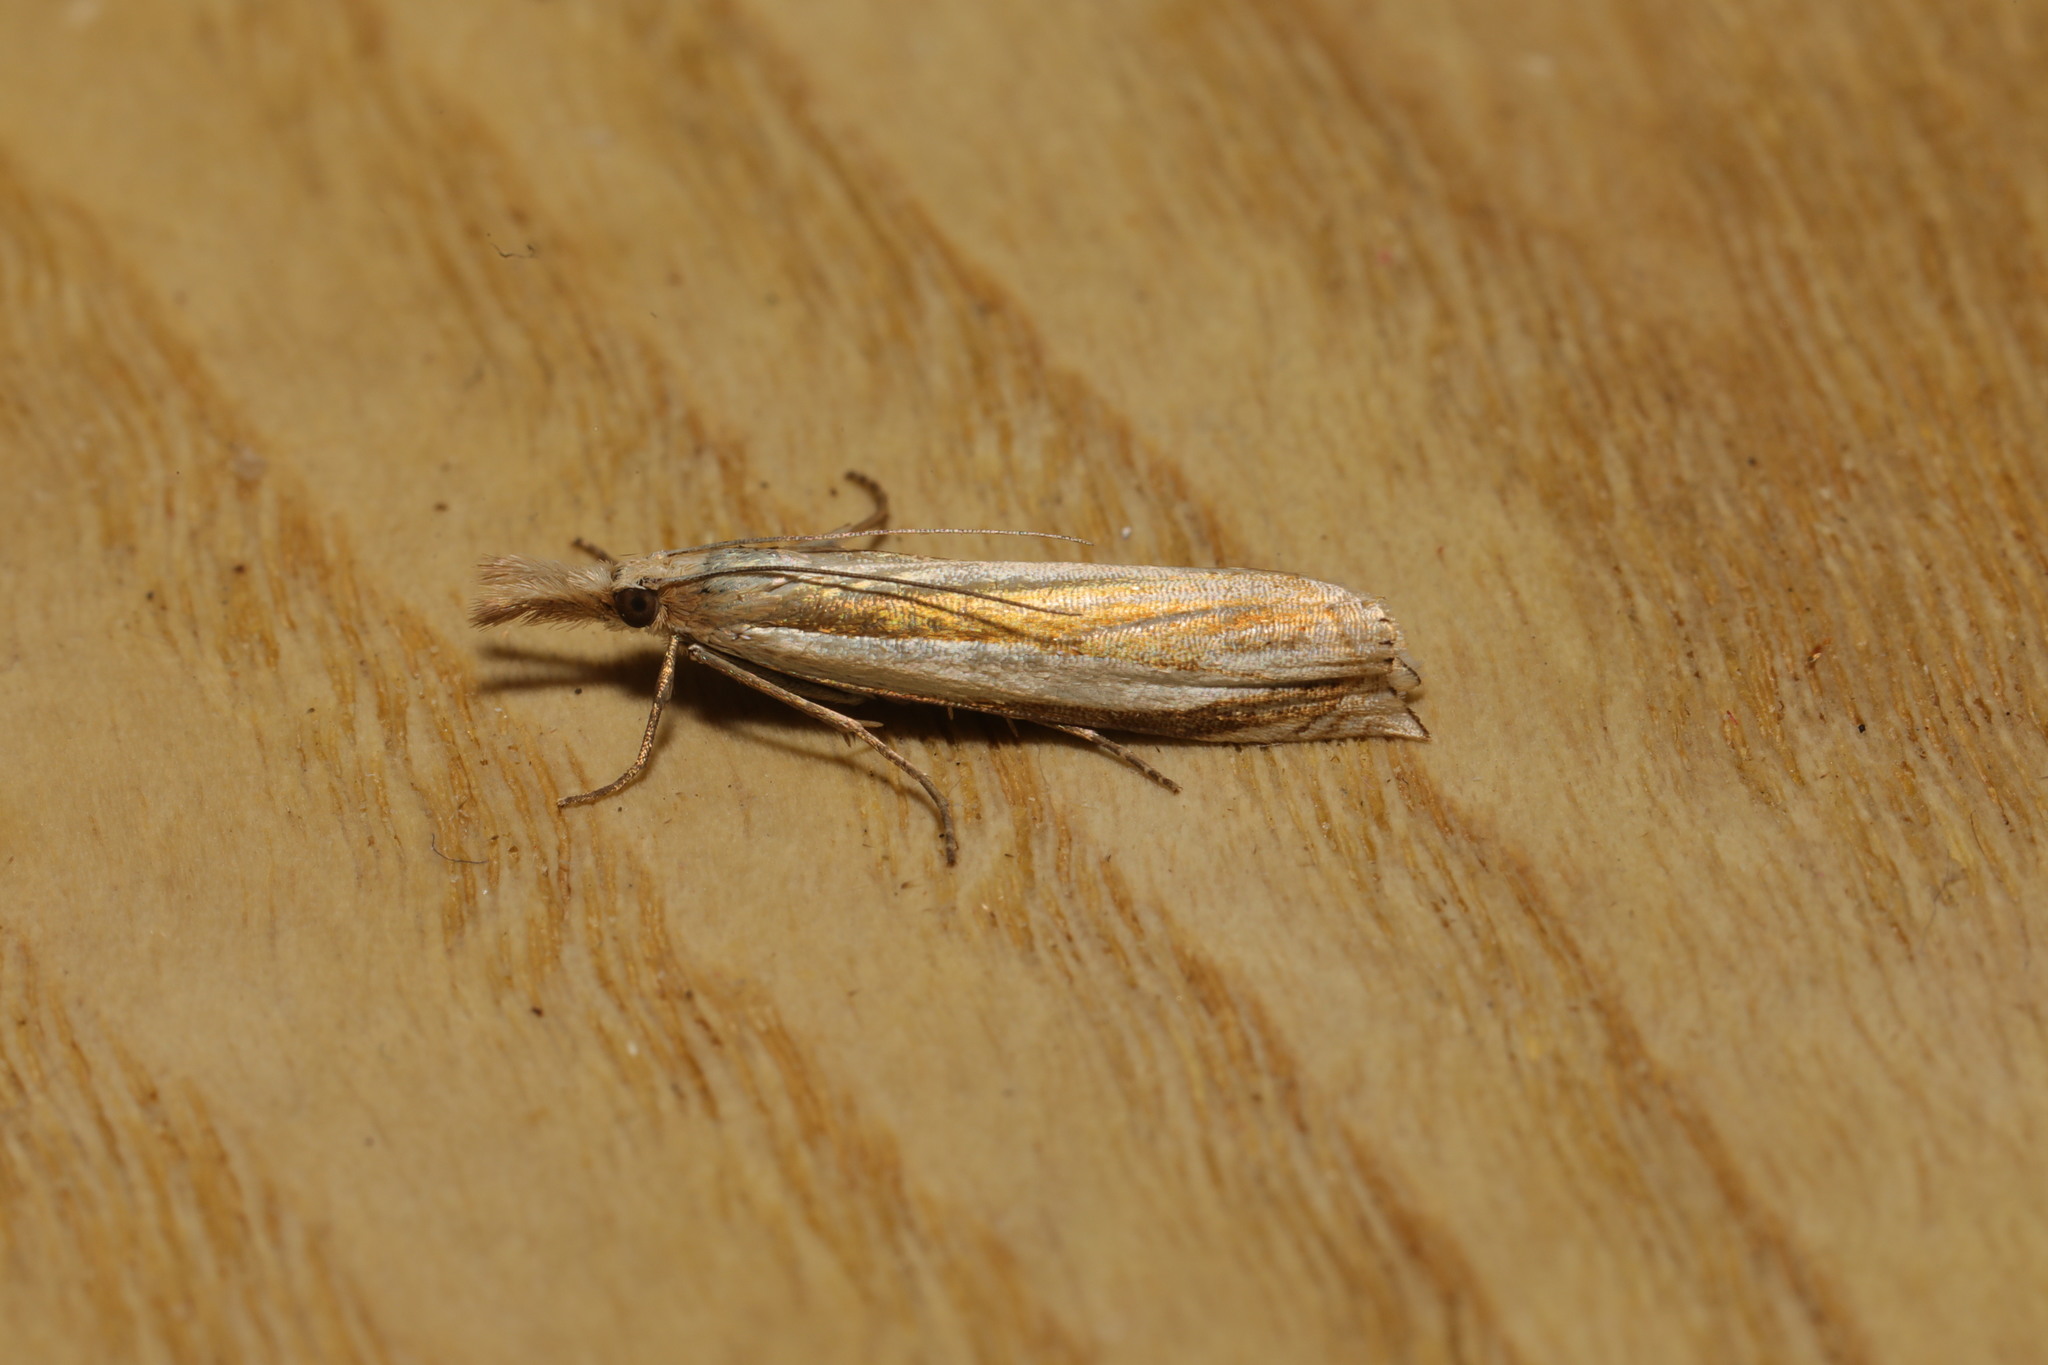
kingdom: Animalia
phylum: Arthropoda
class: Insecta
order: Lepidoptera
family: Crambidae
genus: Crambus
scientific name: Crambus pascuella
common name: Inlaid grass-veneer
